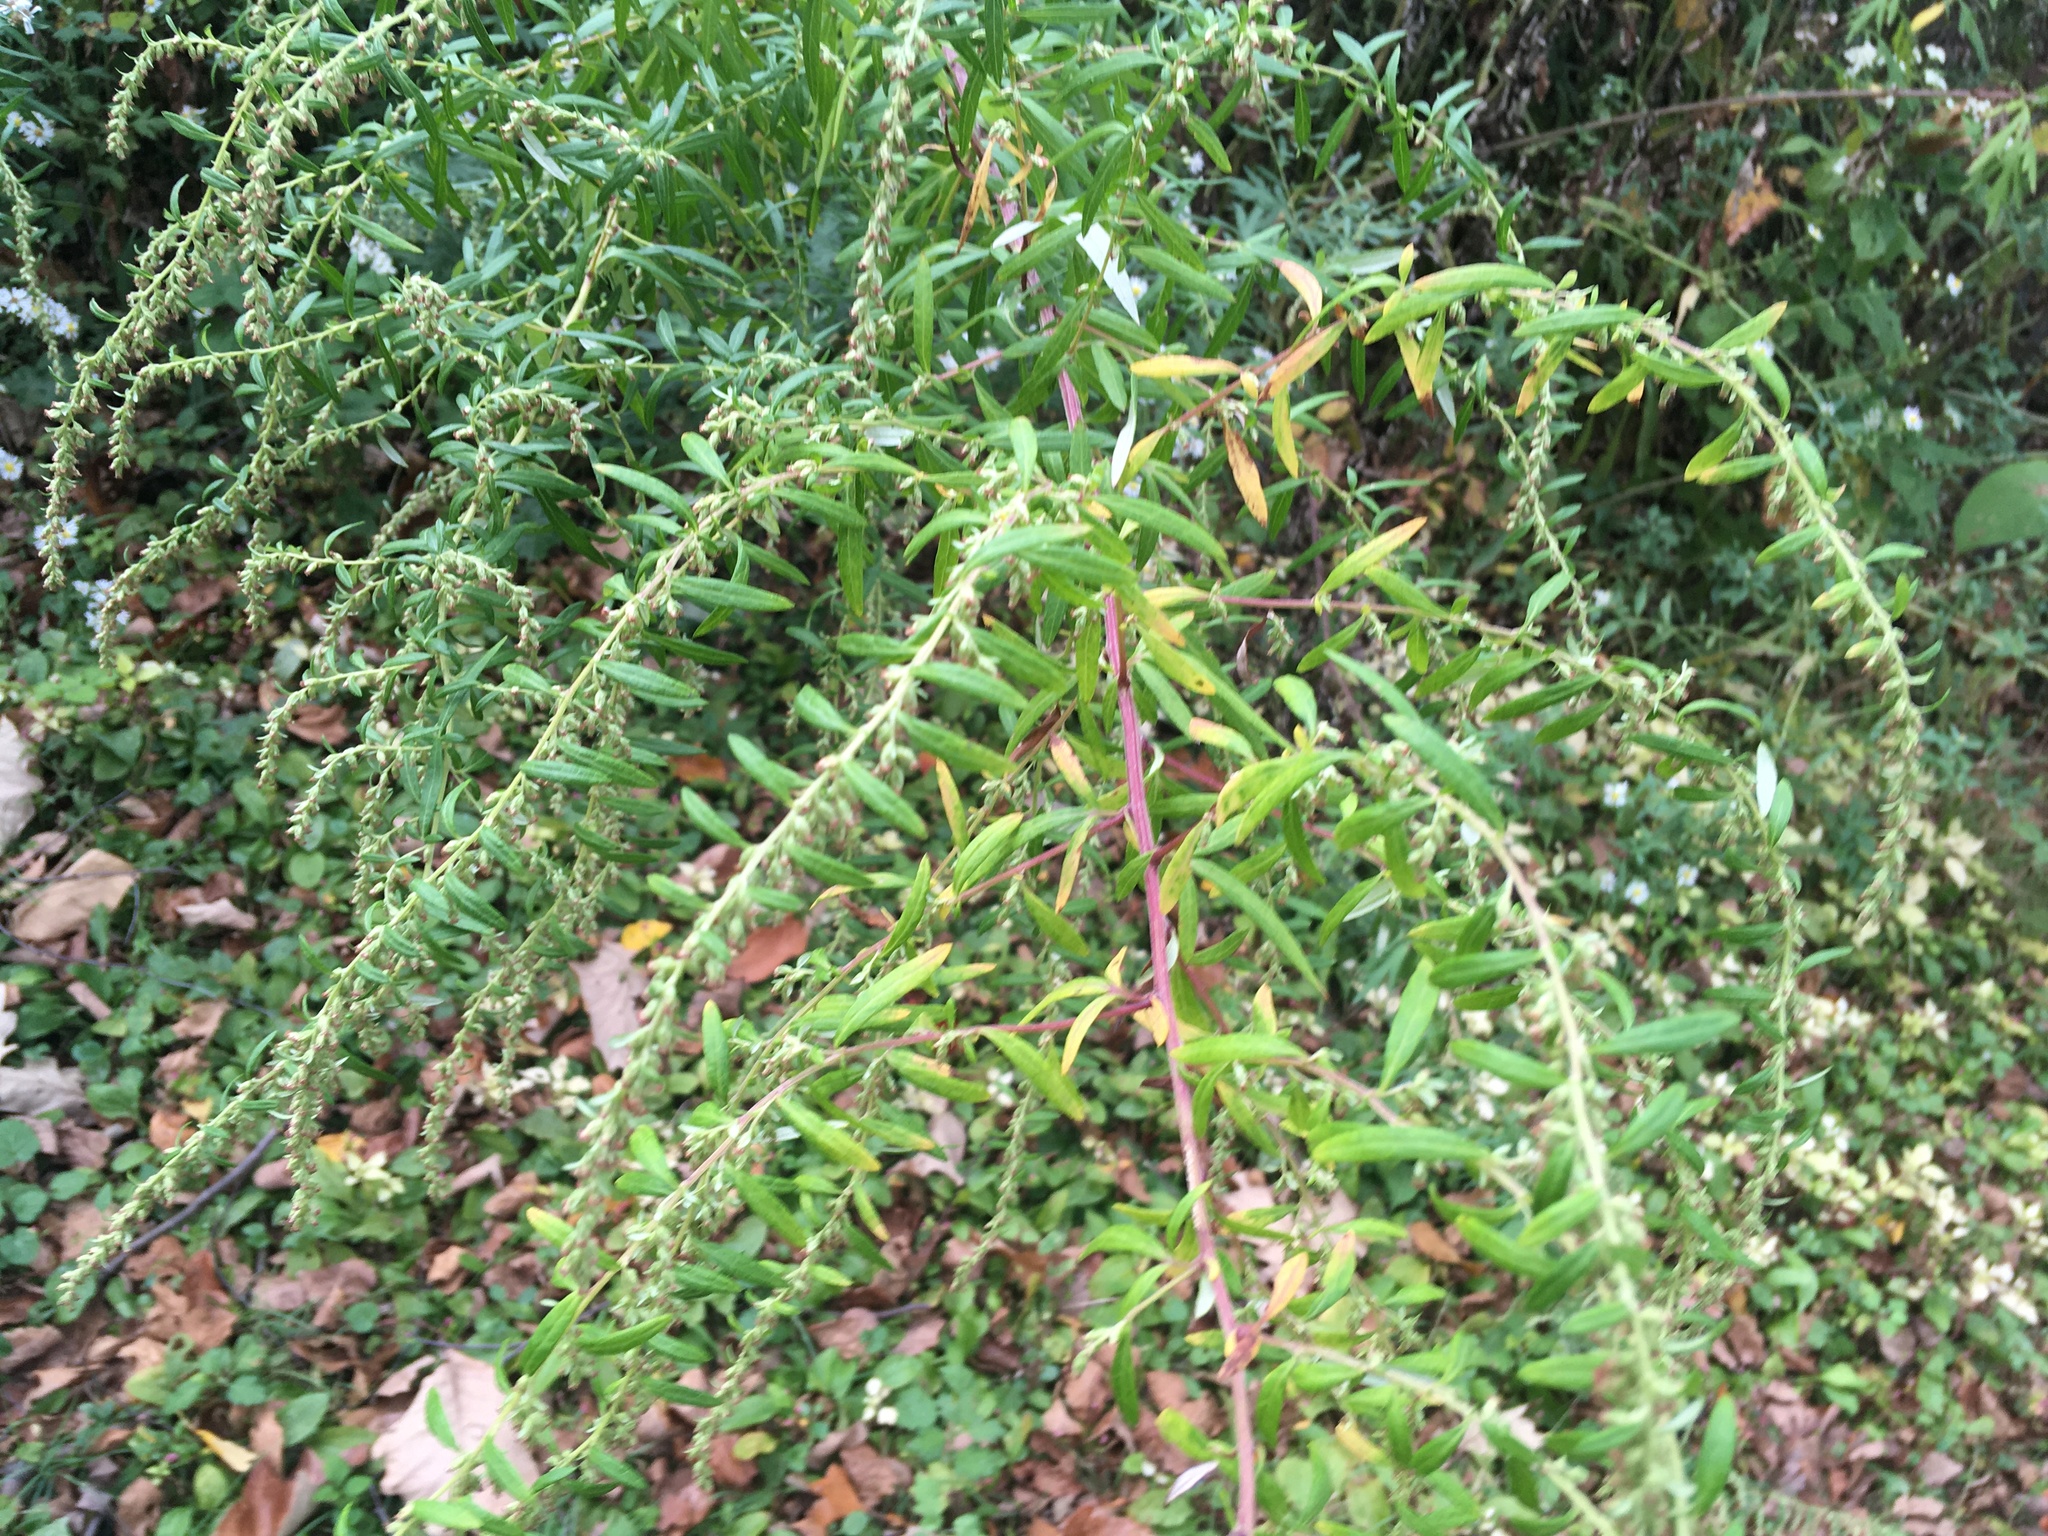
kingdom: Plantae
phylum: Tracheophyta
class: Magnoliopsida
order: Asterales
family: Asteraceae
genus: Artemisia
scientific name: Artemisia vulgaris
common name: Mugwort
